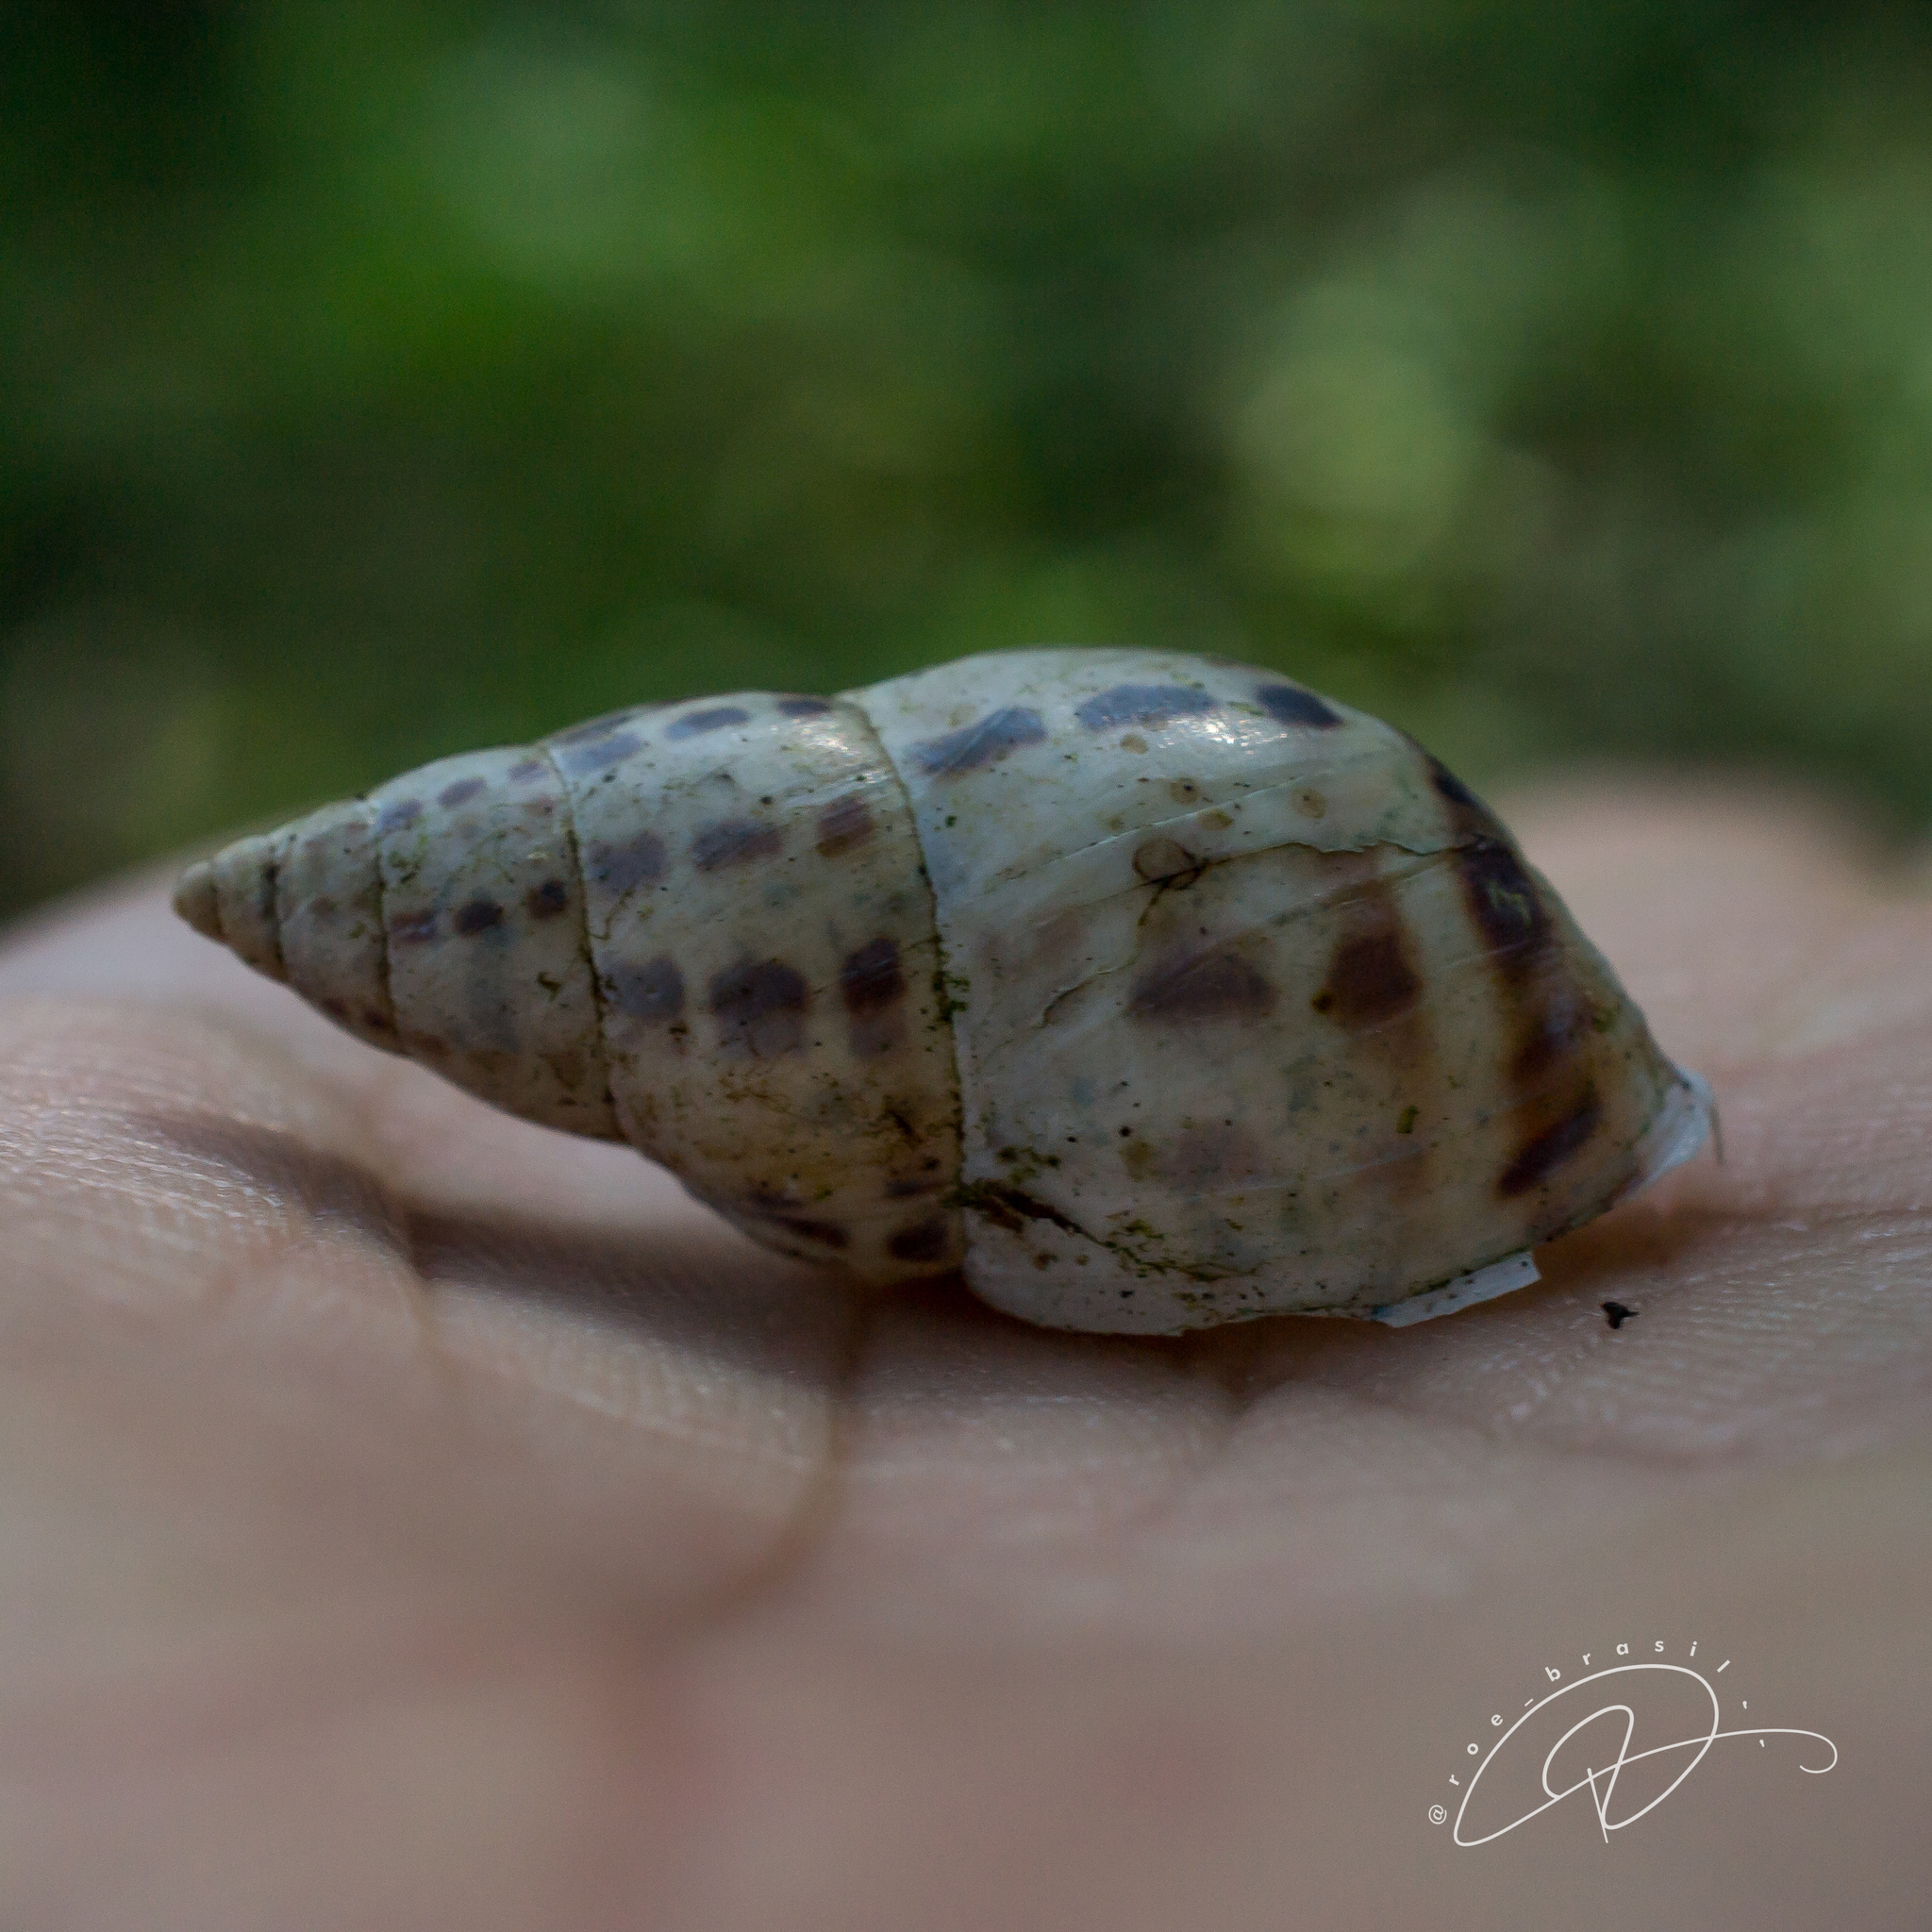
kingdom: Animalia
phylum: Mollusca
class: Gastropoda
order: Stylommatophora
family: Bulimulidae
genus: Drymaeus
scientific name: Drymaeus
